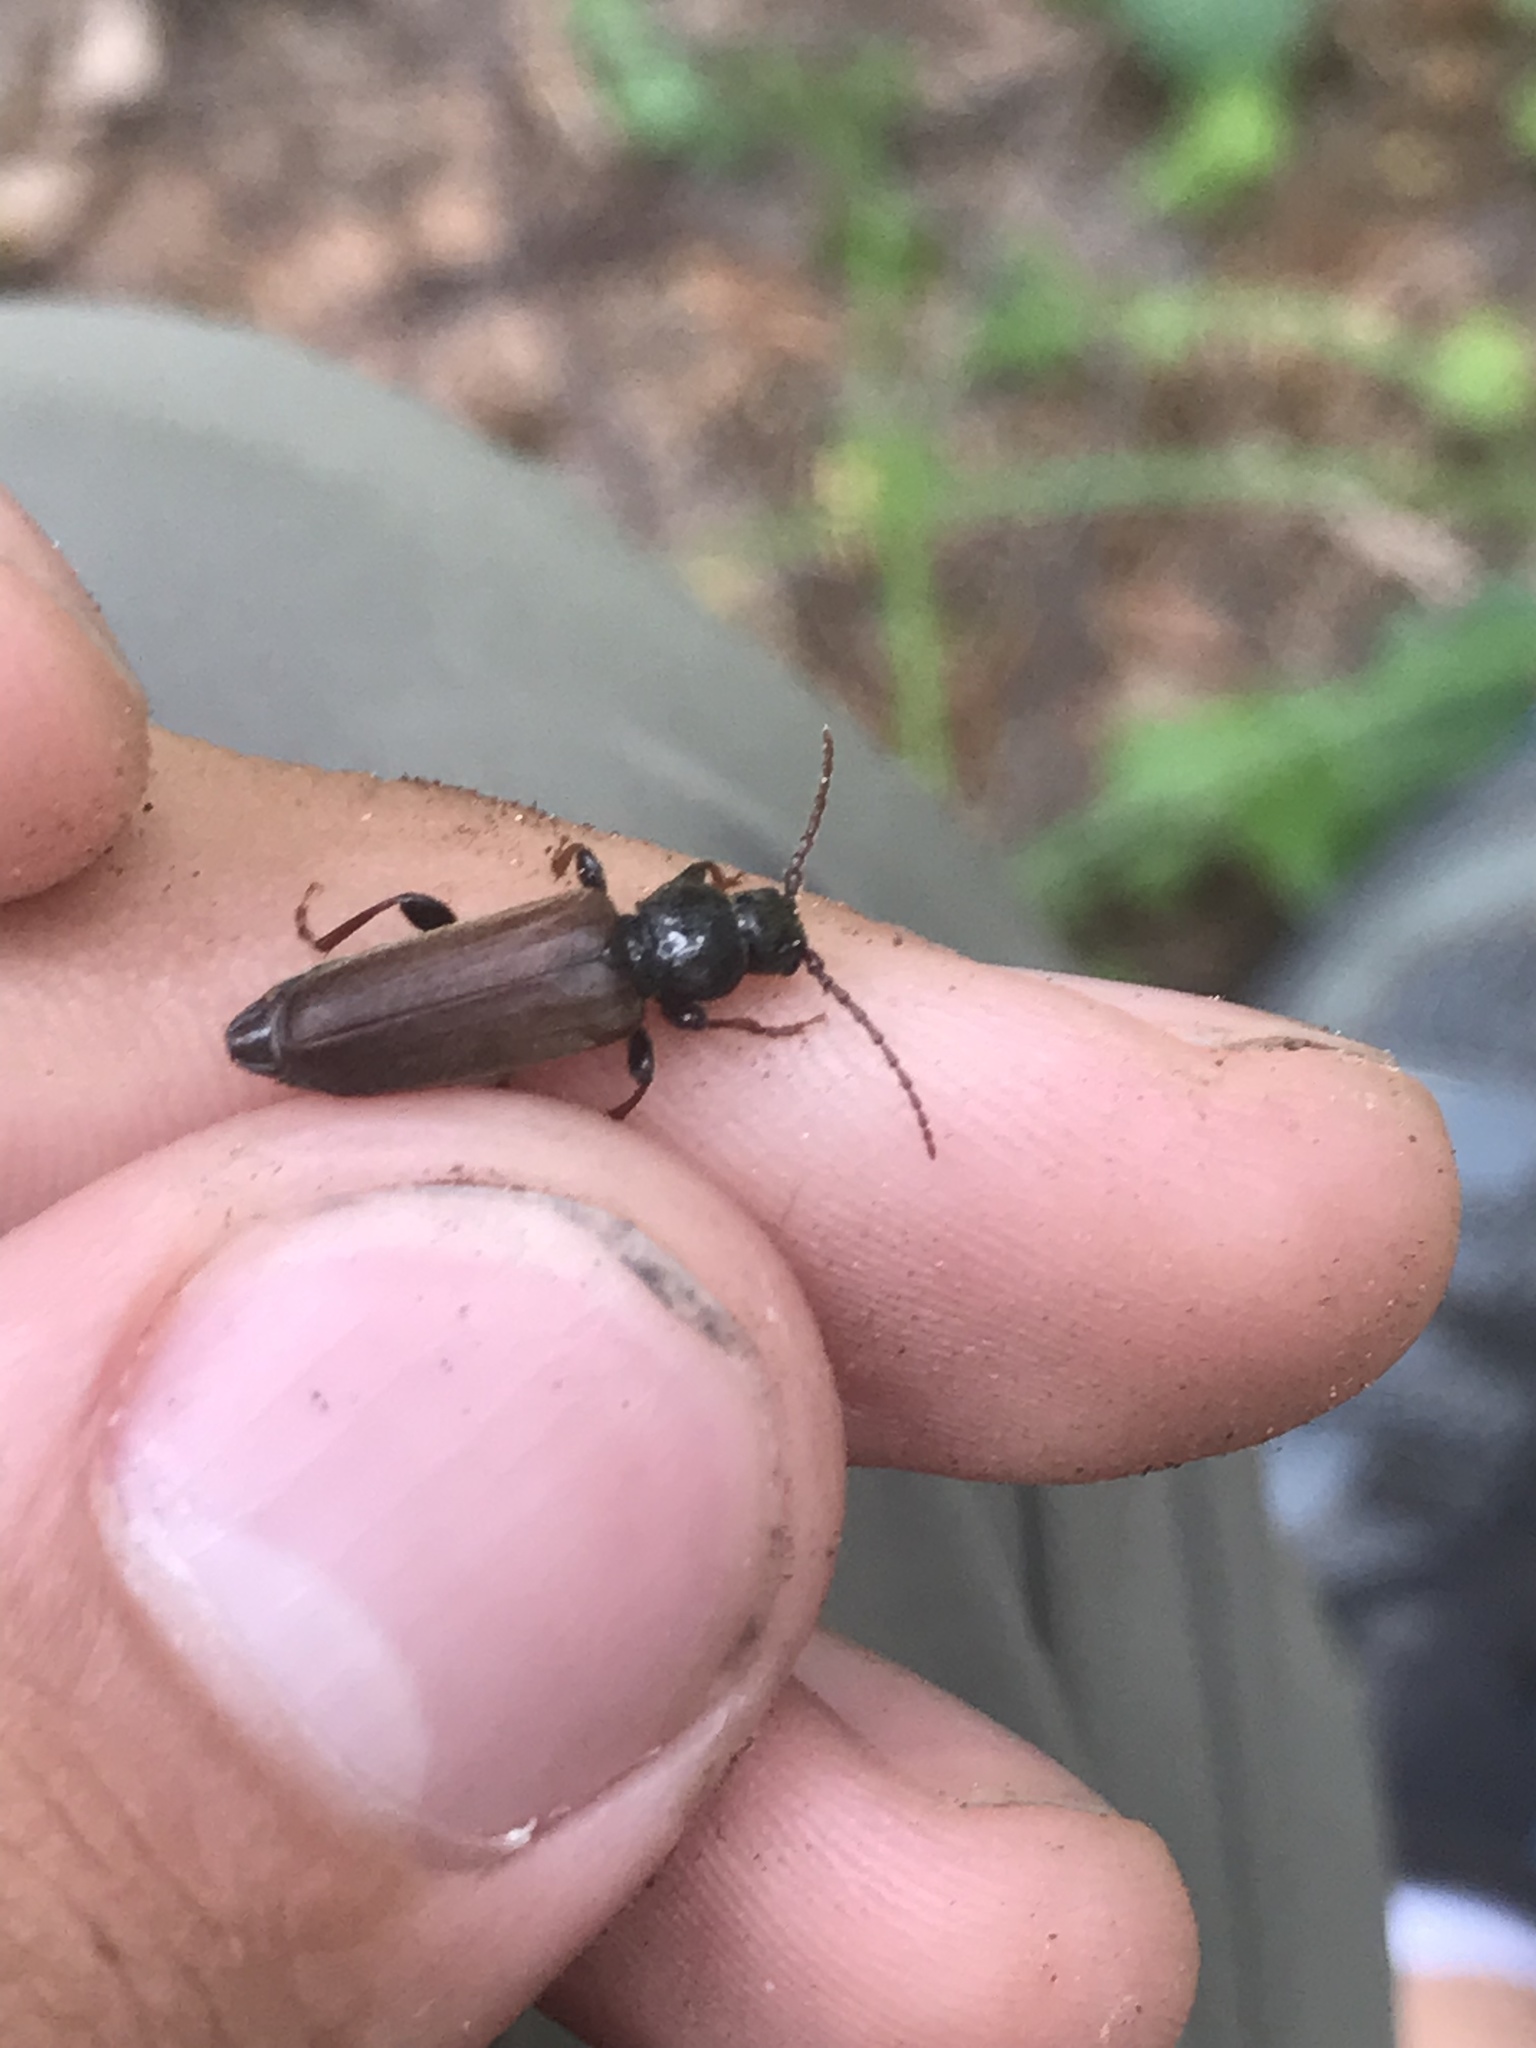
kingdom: Animalia
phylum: Arthropoda
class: Insecta
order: Coleoptera
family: Cerambycidae
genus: Tetropium
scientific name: Tetropium castaneum
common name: Long-horned beetle
